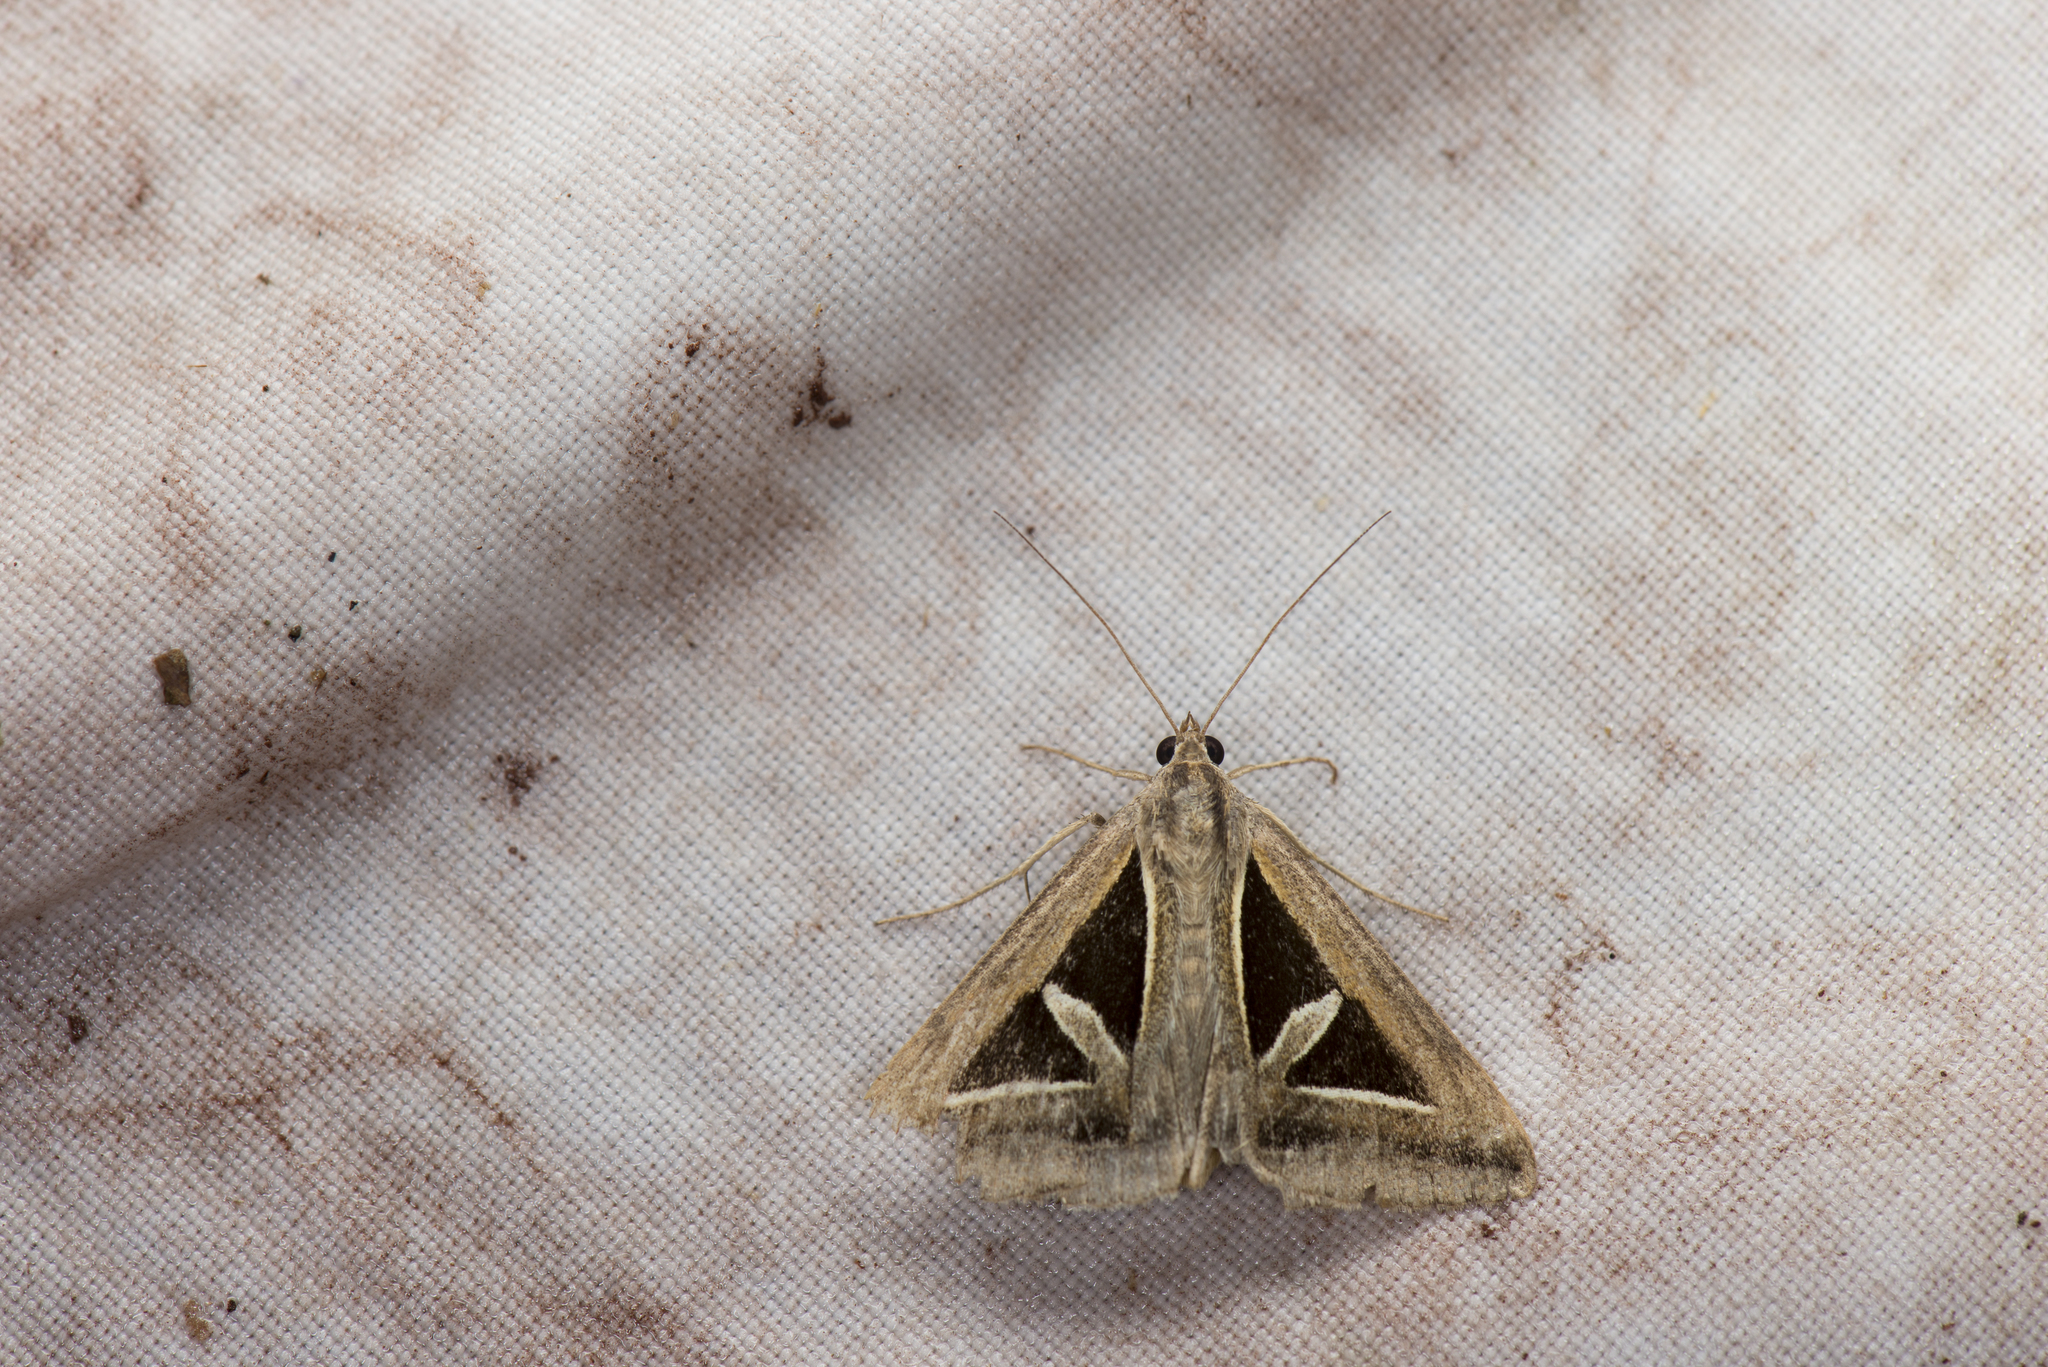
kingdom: Animalia
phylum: Arthropoda
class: Insecta
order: Lepidoptera
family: Erebidae
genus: Trigonodes
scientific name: Trigonodes hyppasia
